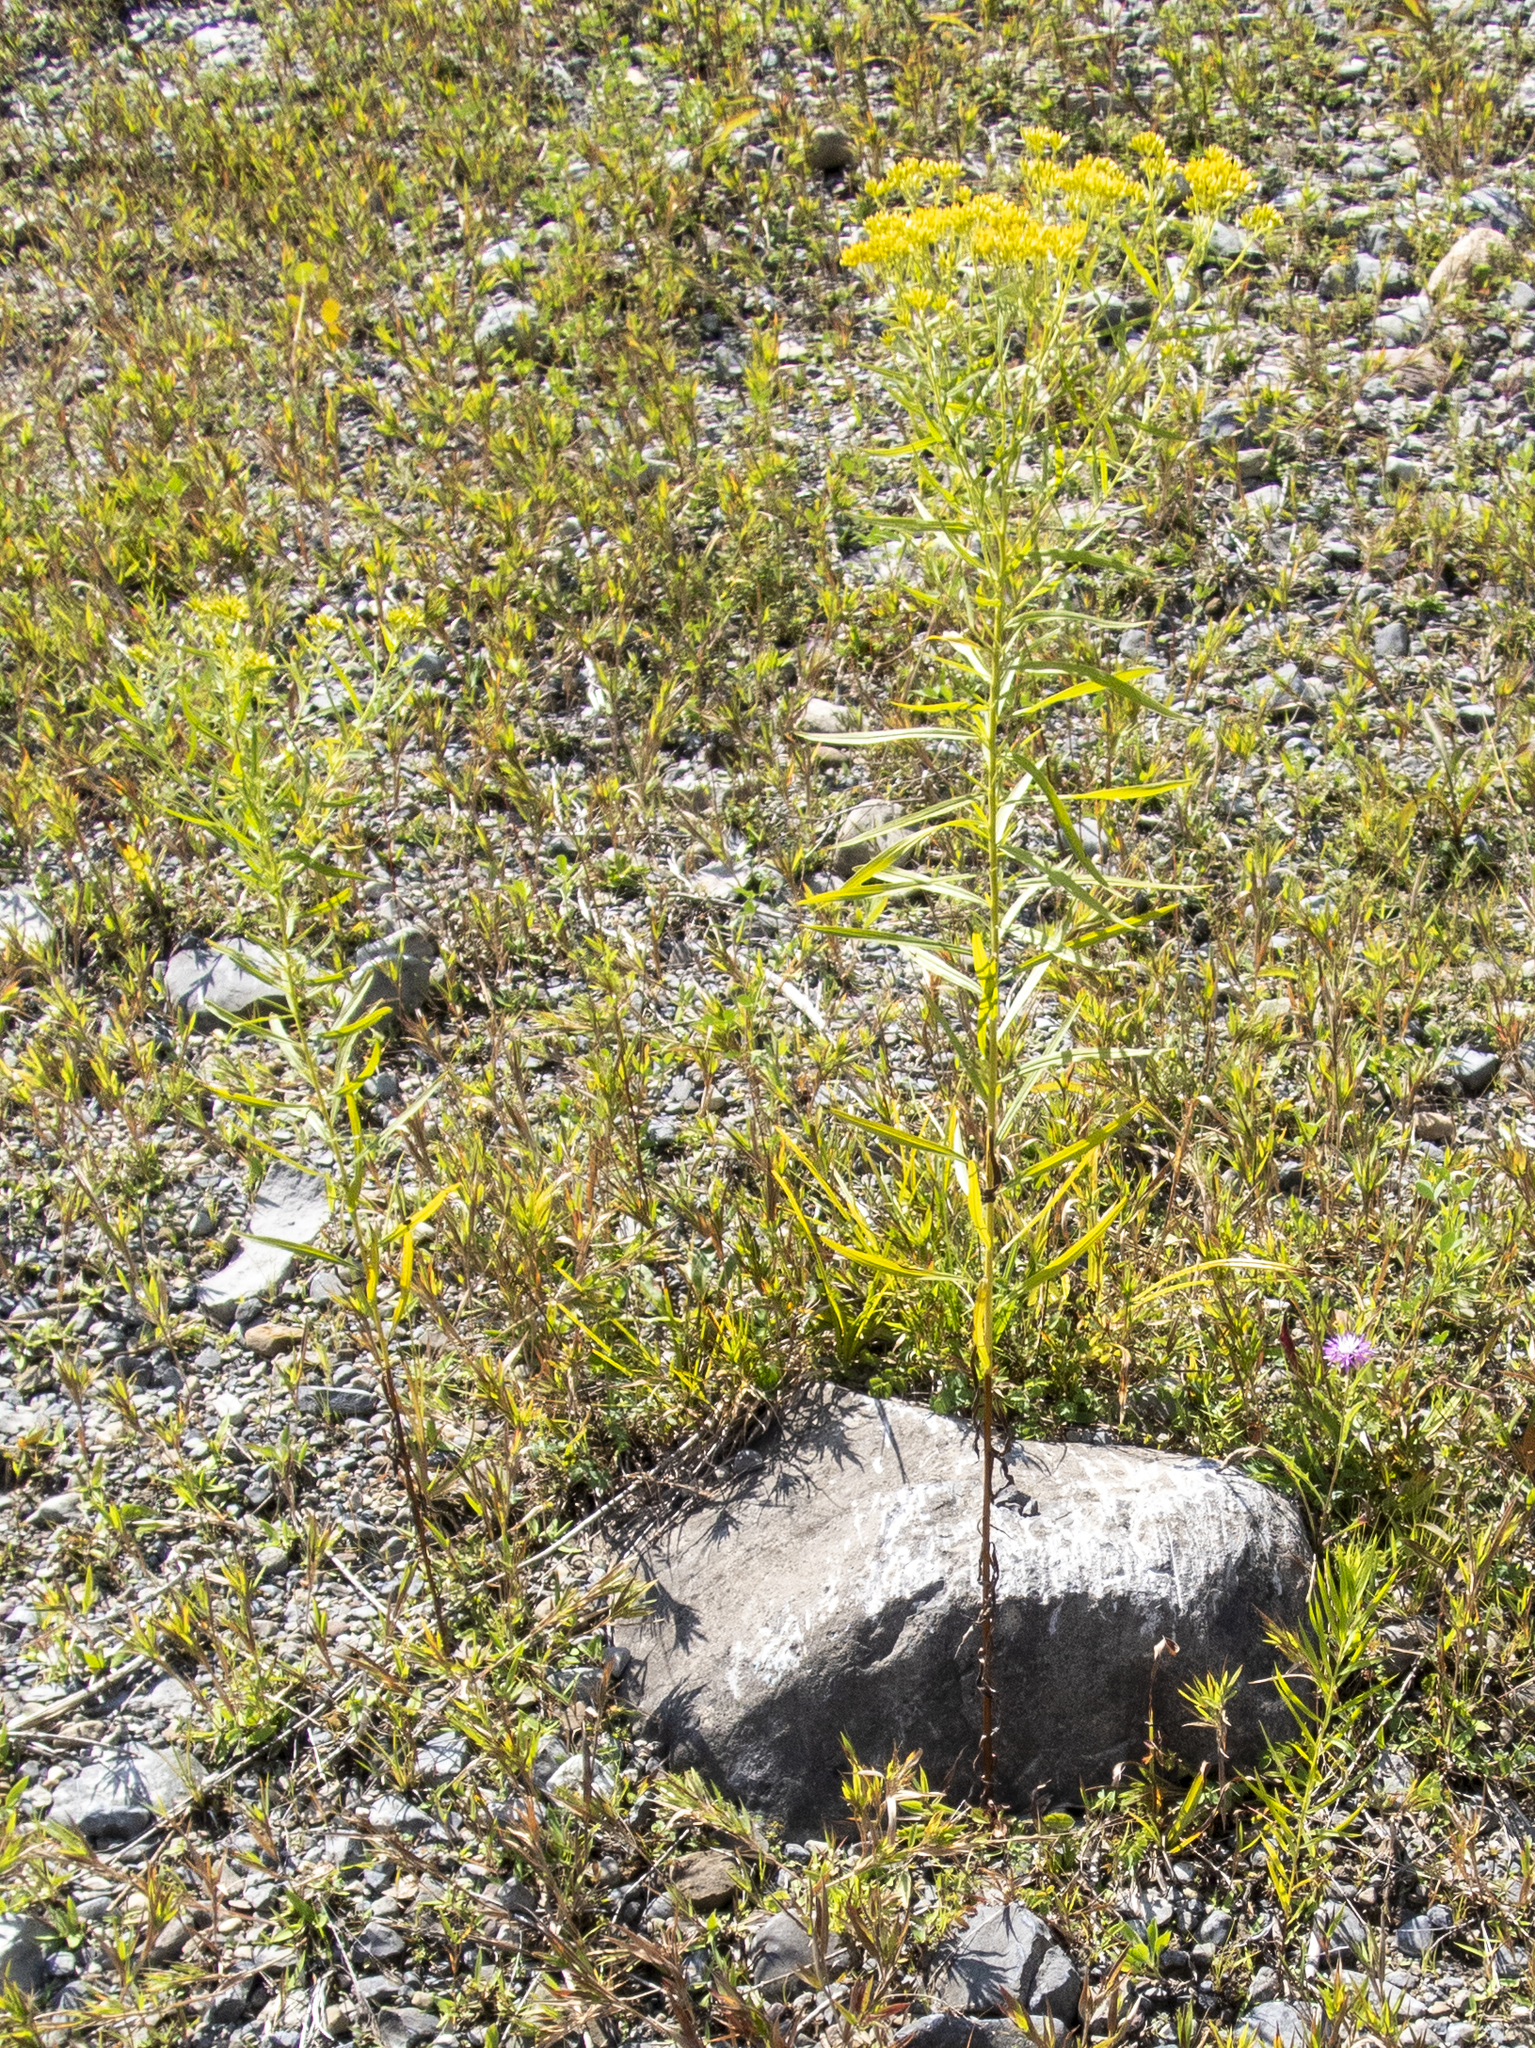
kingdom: Plantae
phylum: Tracheophyta
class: Magnoliopsida
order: Asterales
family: Asteraceae
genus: Euthamia
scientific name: Euthamia graminifolia
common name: Common goldentop
